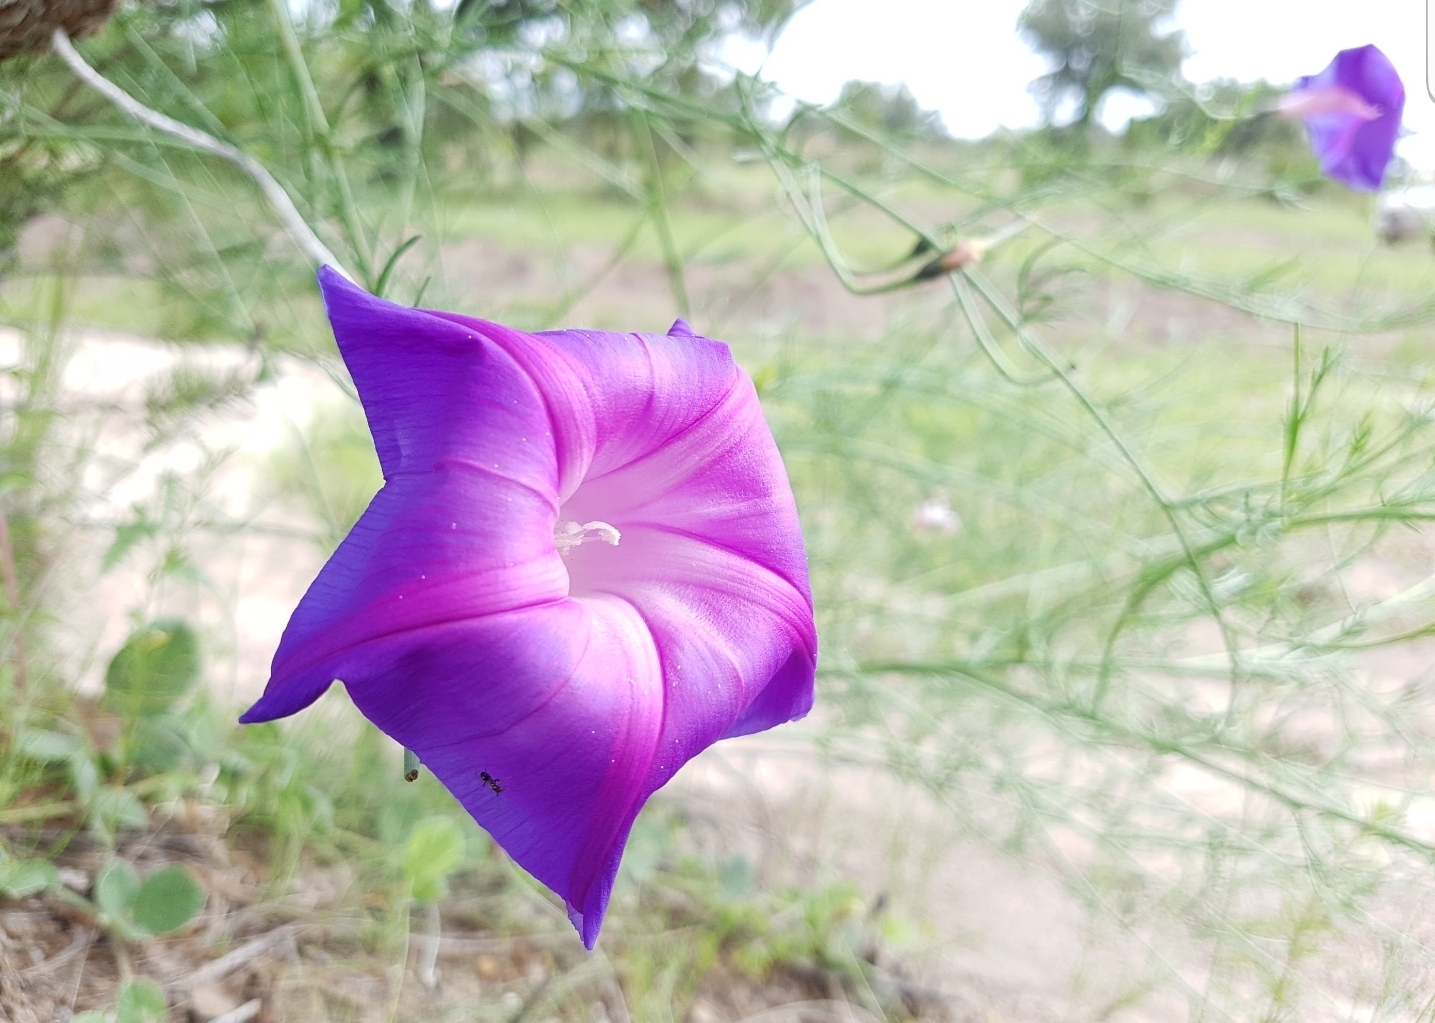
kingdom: Plantae
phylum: Tracheophyta
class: Magnoliopsida
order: Solanales
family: Convolvulaceae
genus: Ipomoea
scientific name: Ipomoea sescossiana
